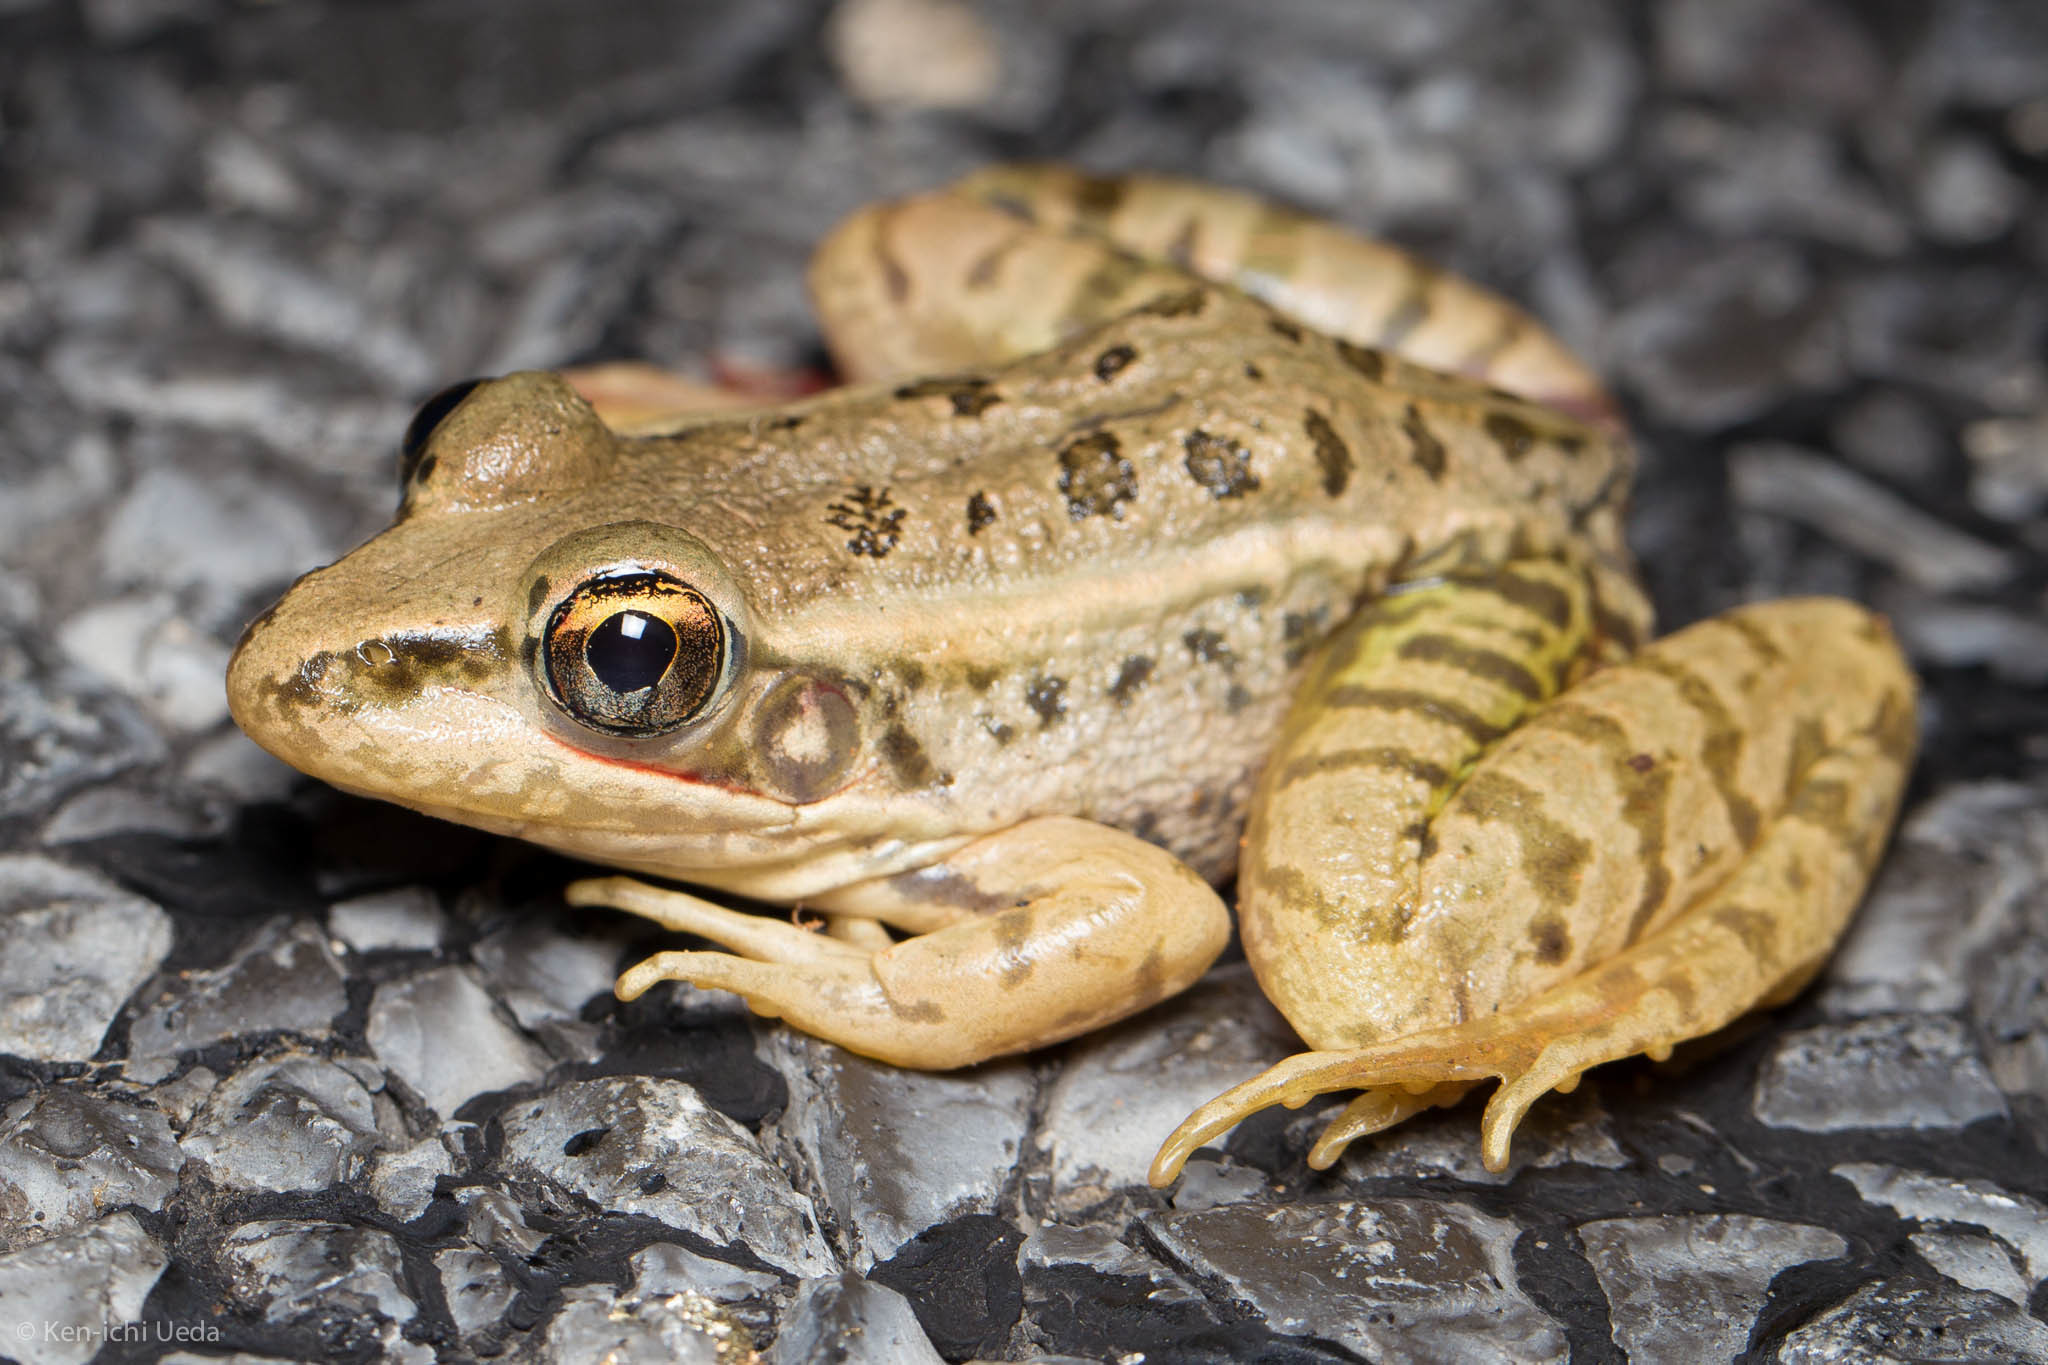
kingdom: Animalia
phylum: Chordata
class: Amphibia
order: Anura
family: Ranidae
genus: Lithobates
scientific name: Lithobates berlandieri
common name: Rio grande leopard frog
